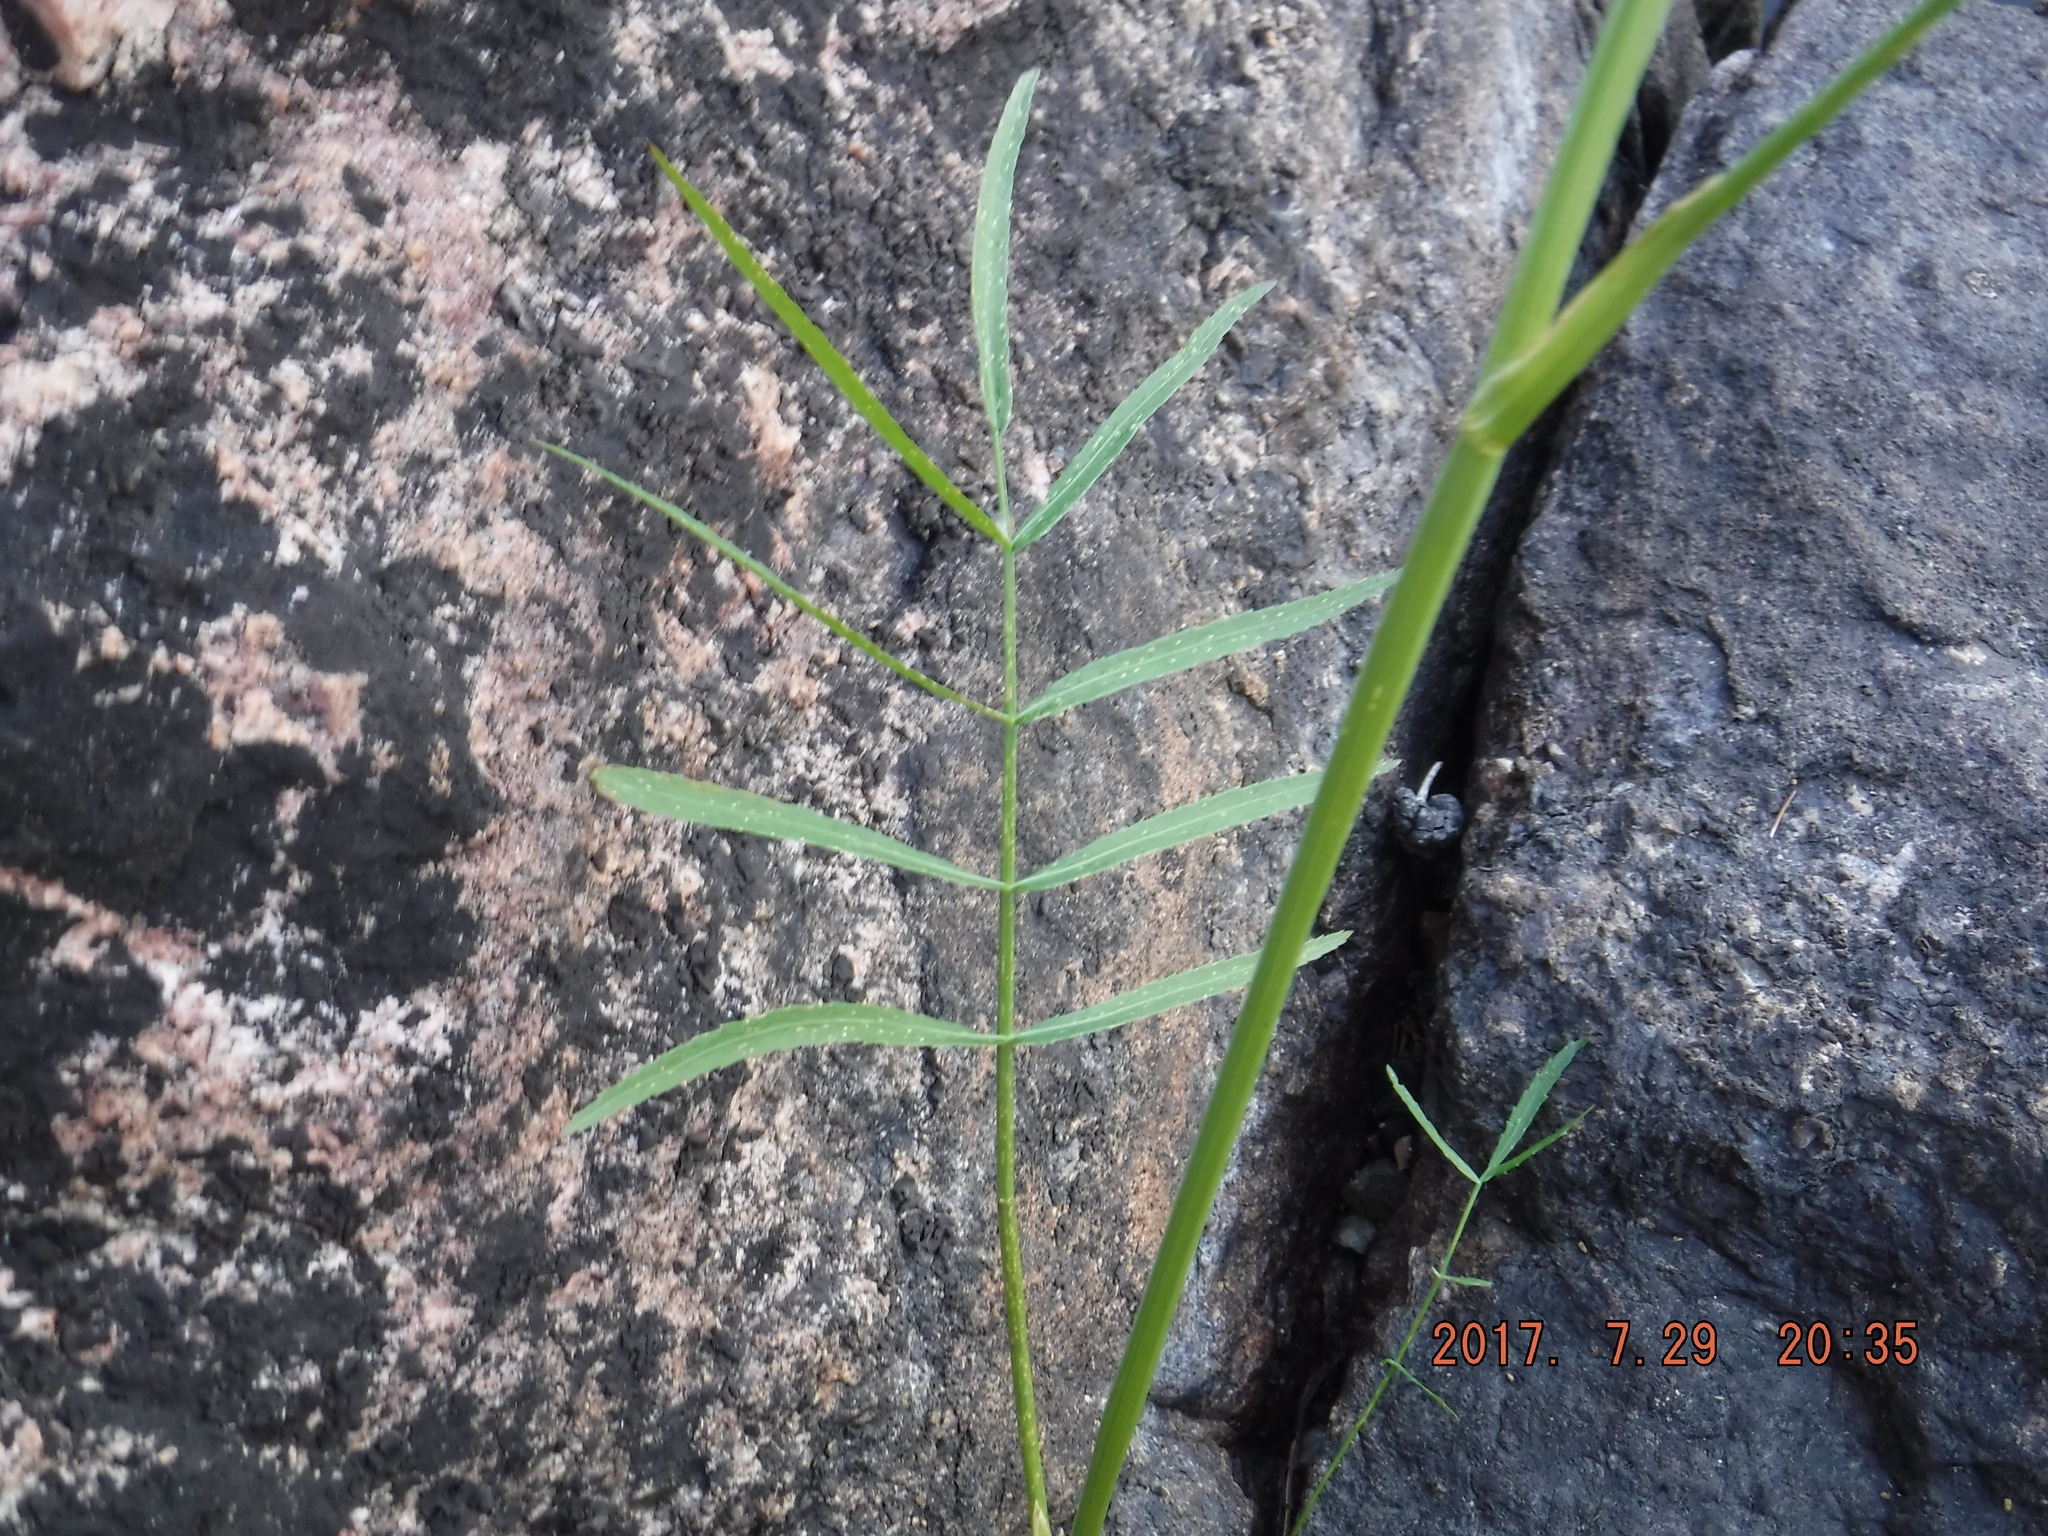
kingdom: Plantae
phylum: Tracheophyta
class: Magnoliopsida
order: Apiales
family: Apiaceae
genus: Sium
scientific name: Sium suave
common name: Hemlock water-parsnip
